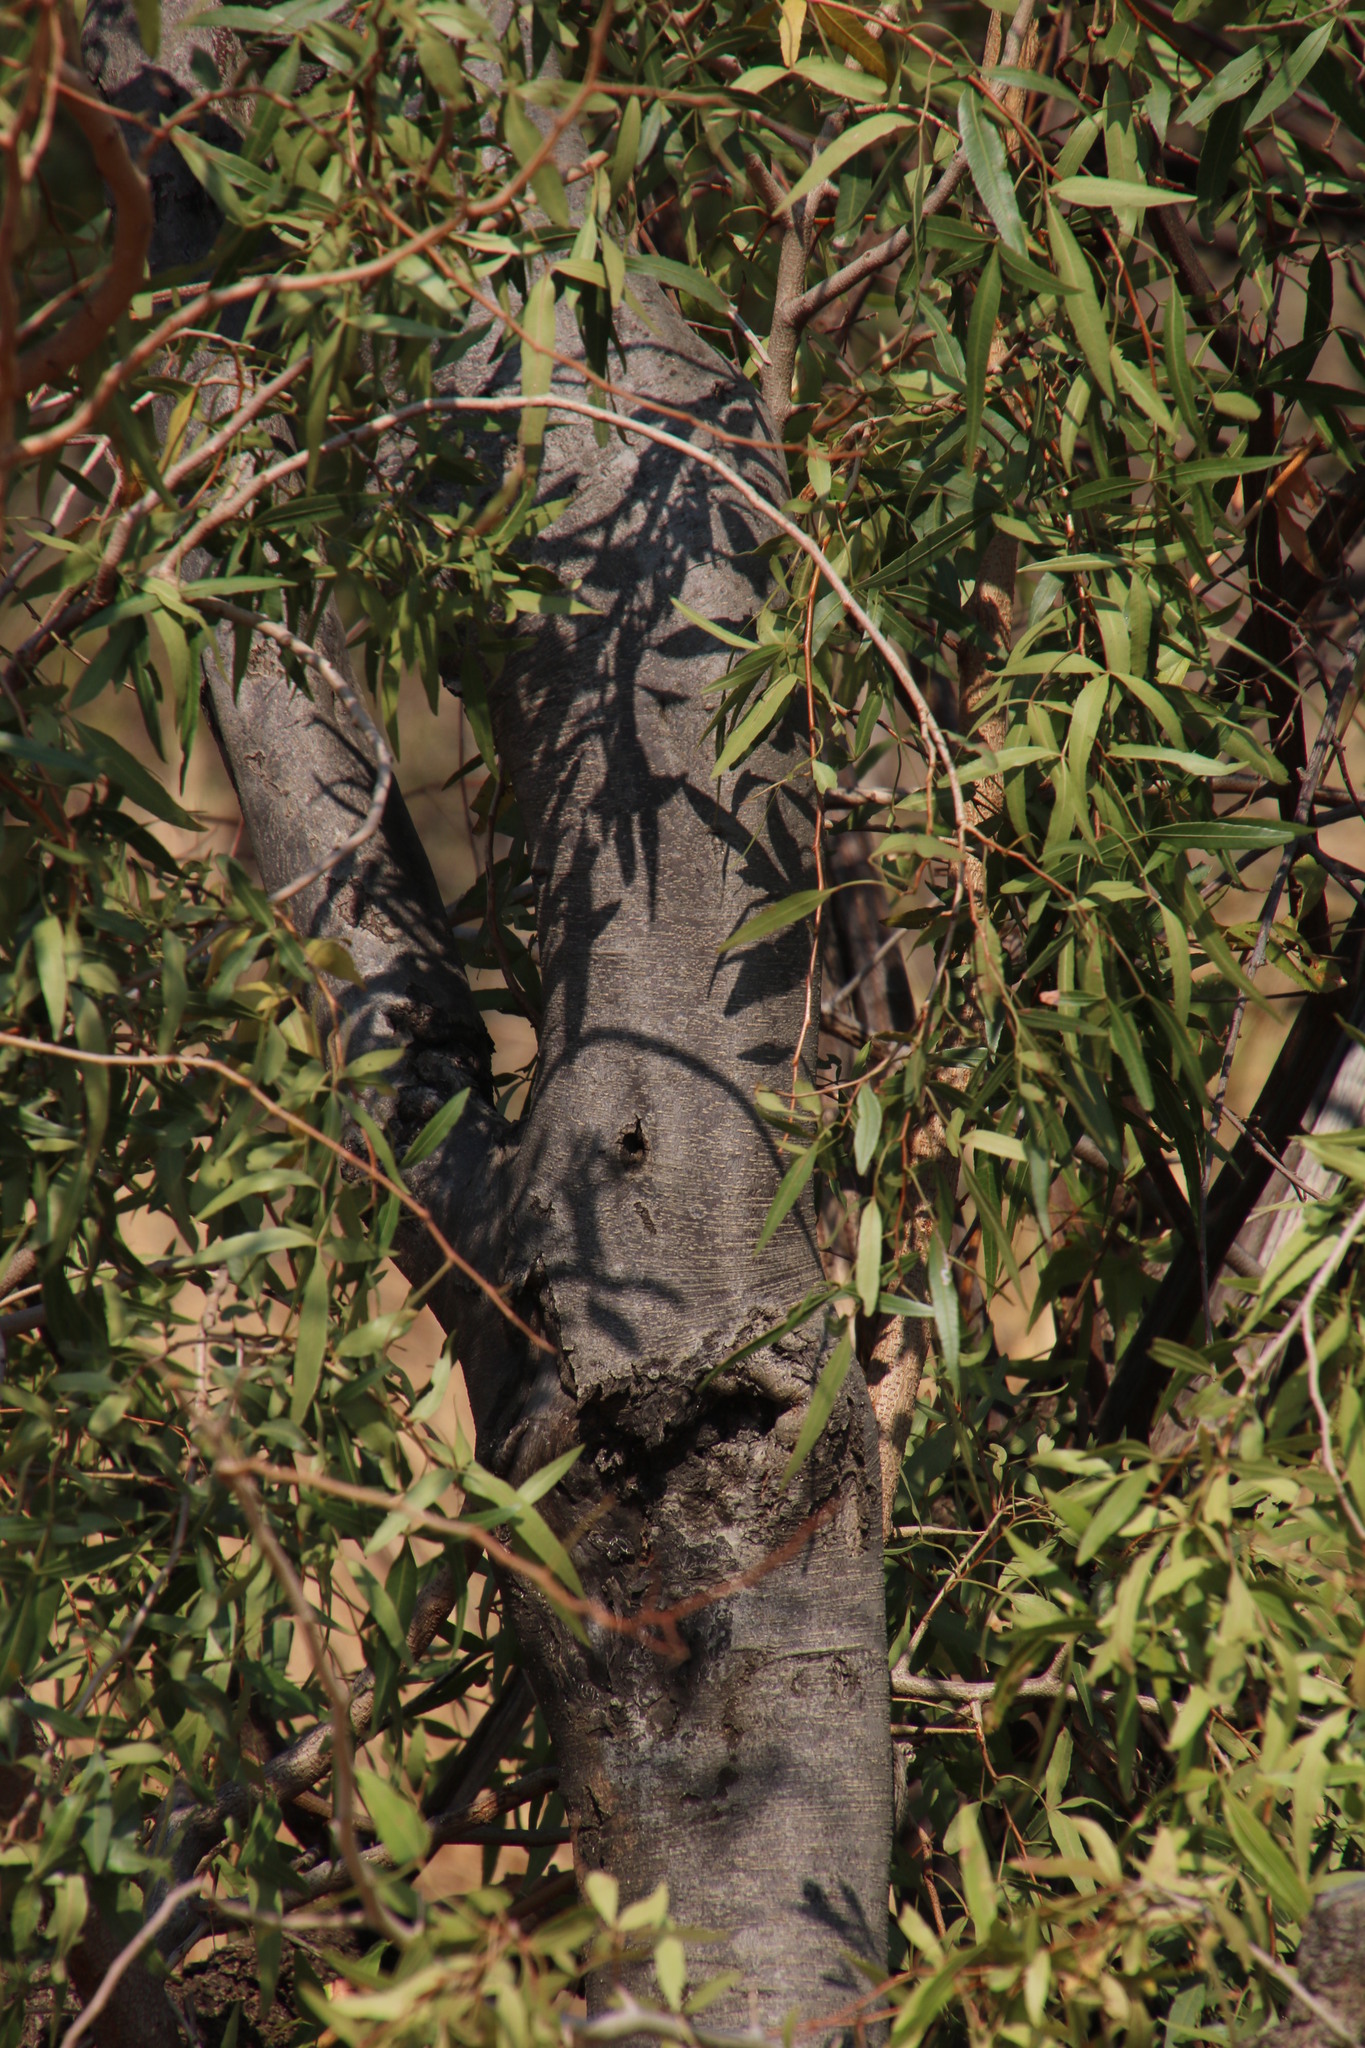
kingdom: Plantae
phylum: Tracheophyta
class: Magnoliopsida
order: Sapindales
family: Anacardiaceae
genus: Searsia
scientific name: Searsia leptodictya
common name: Mountain karee
